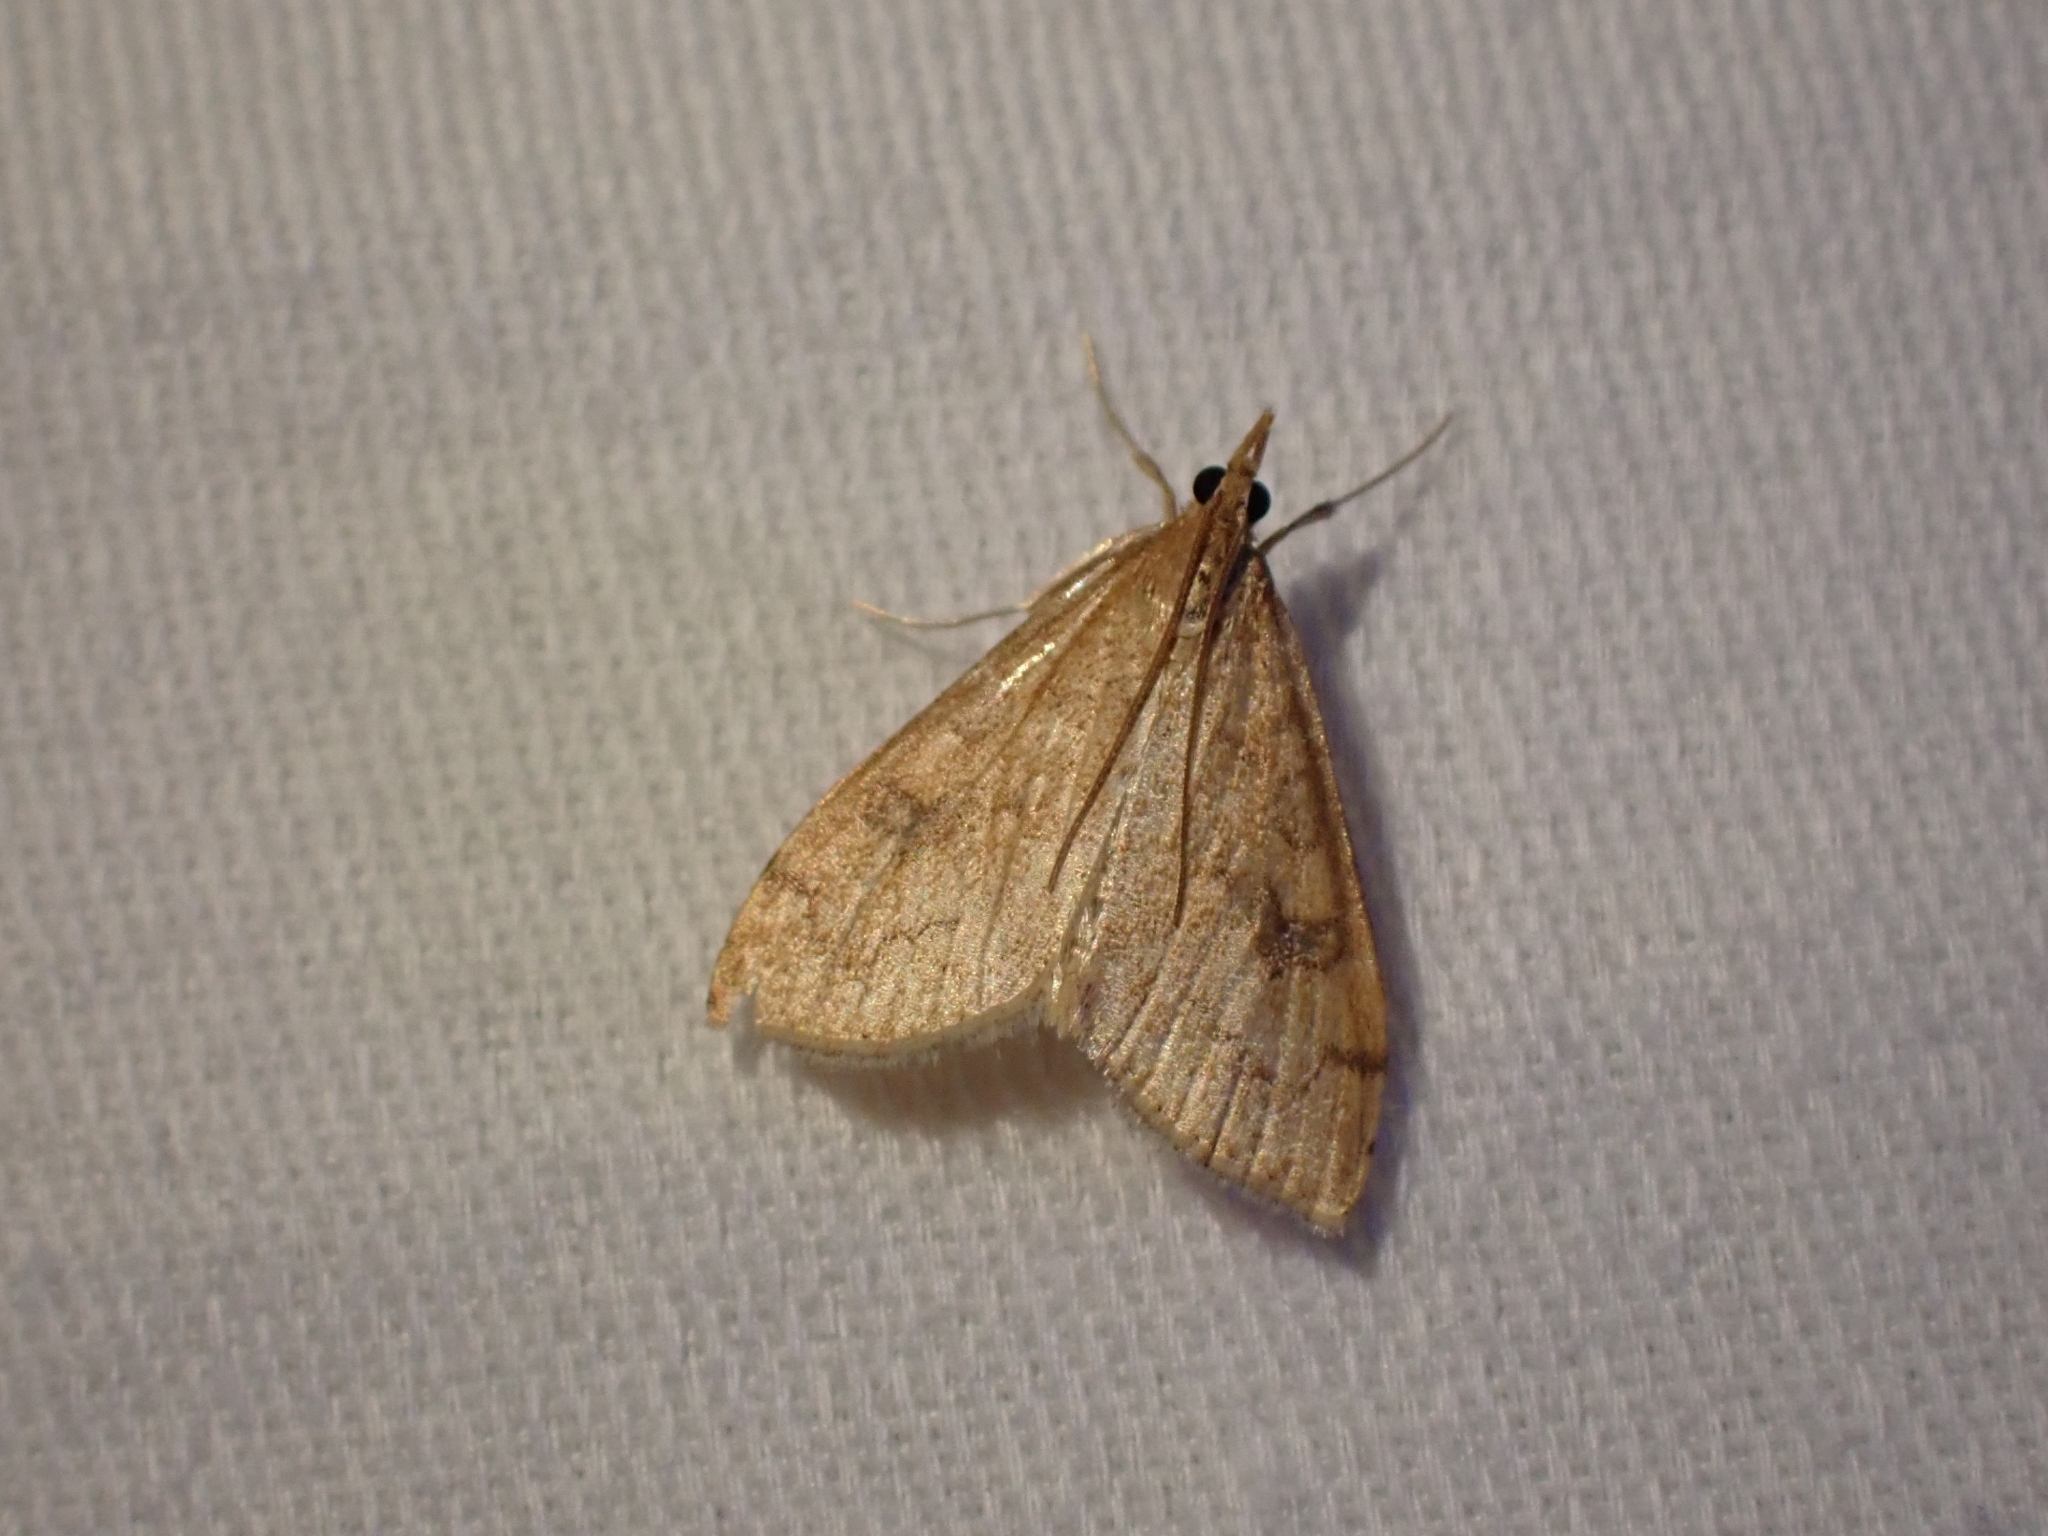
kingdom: Animalia
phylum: Arthropoda
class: Insecta
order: Lepidoptera
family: Crambidae
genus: Udea
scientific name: Udea profundalis
